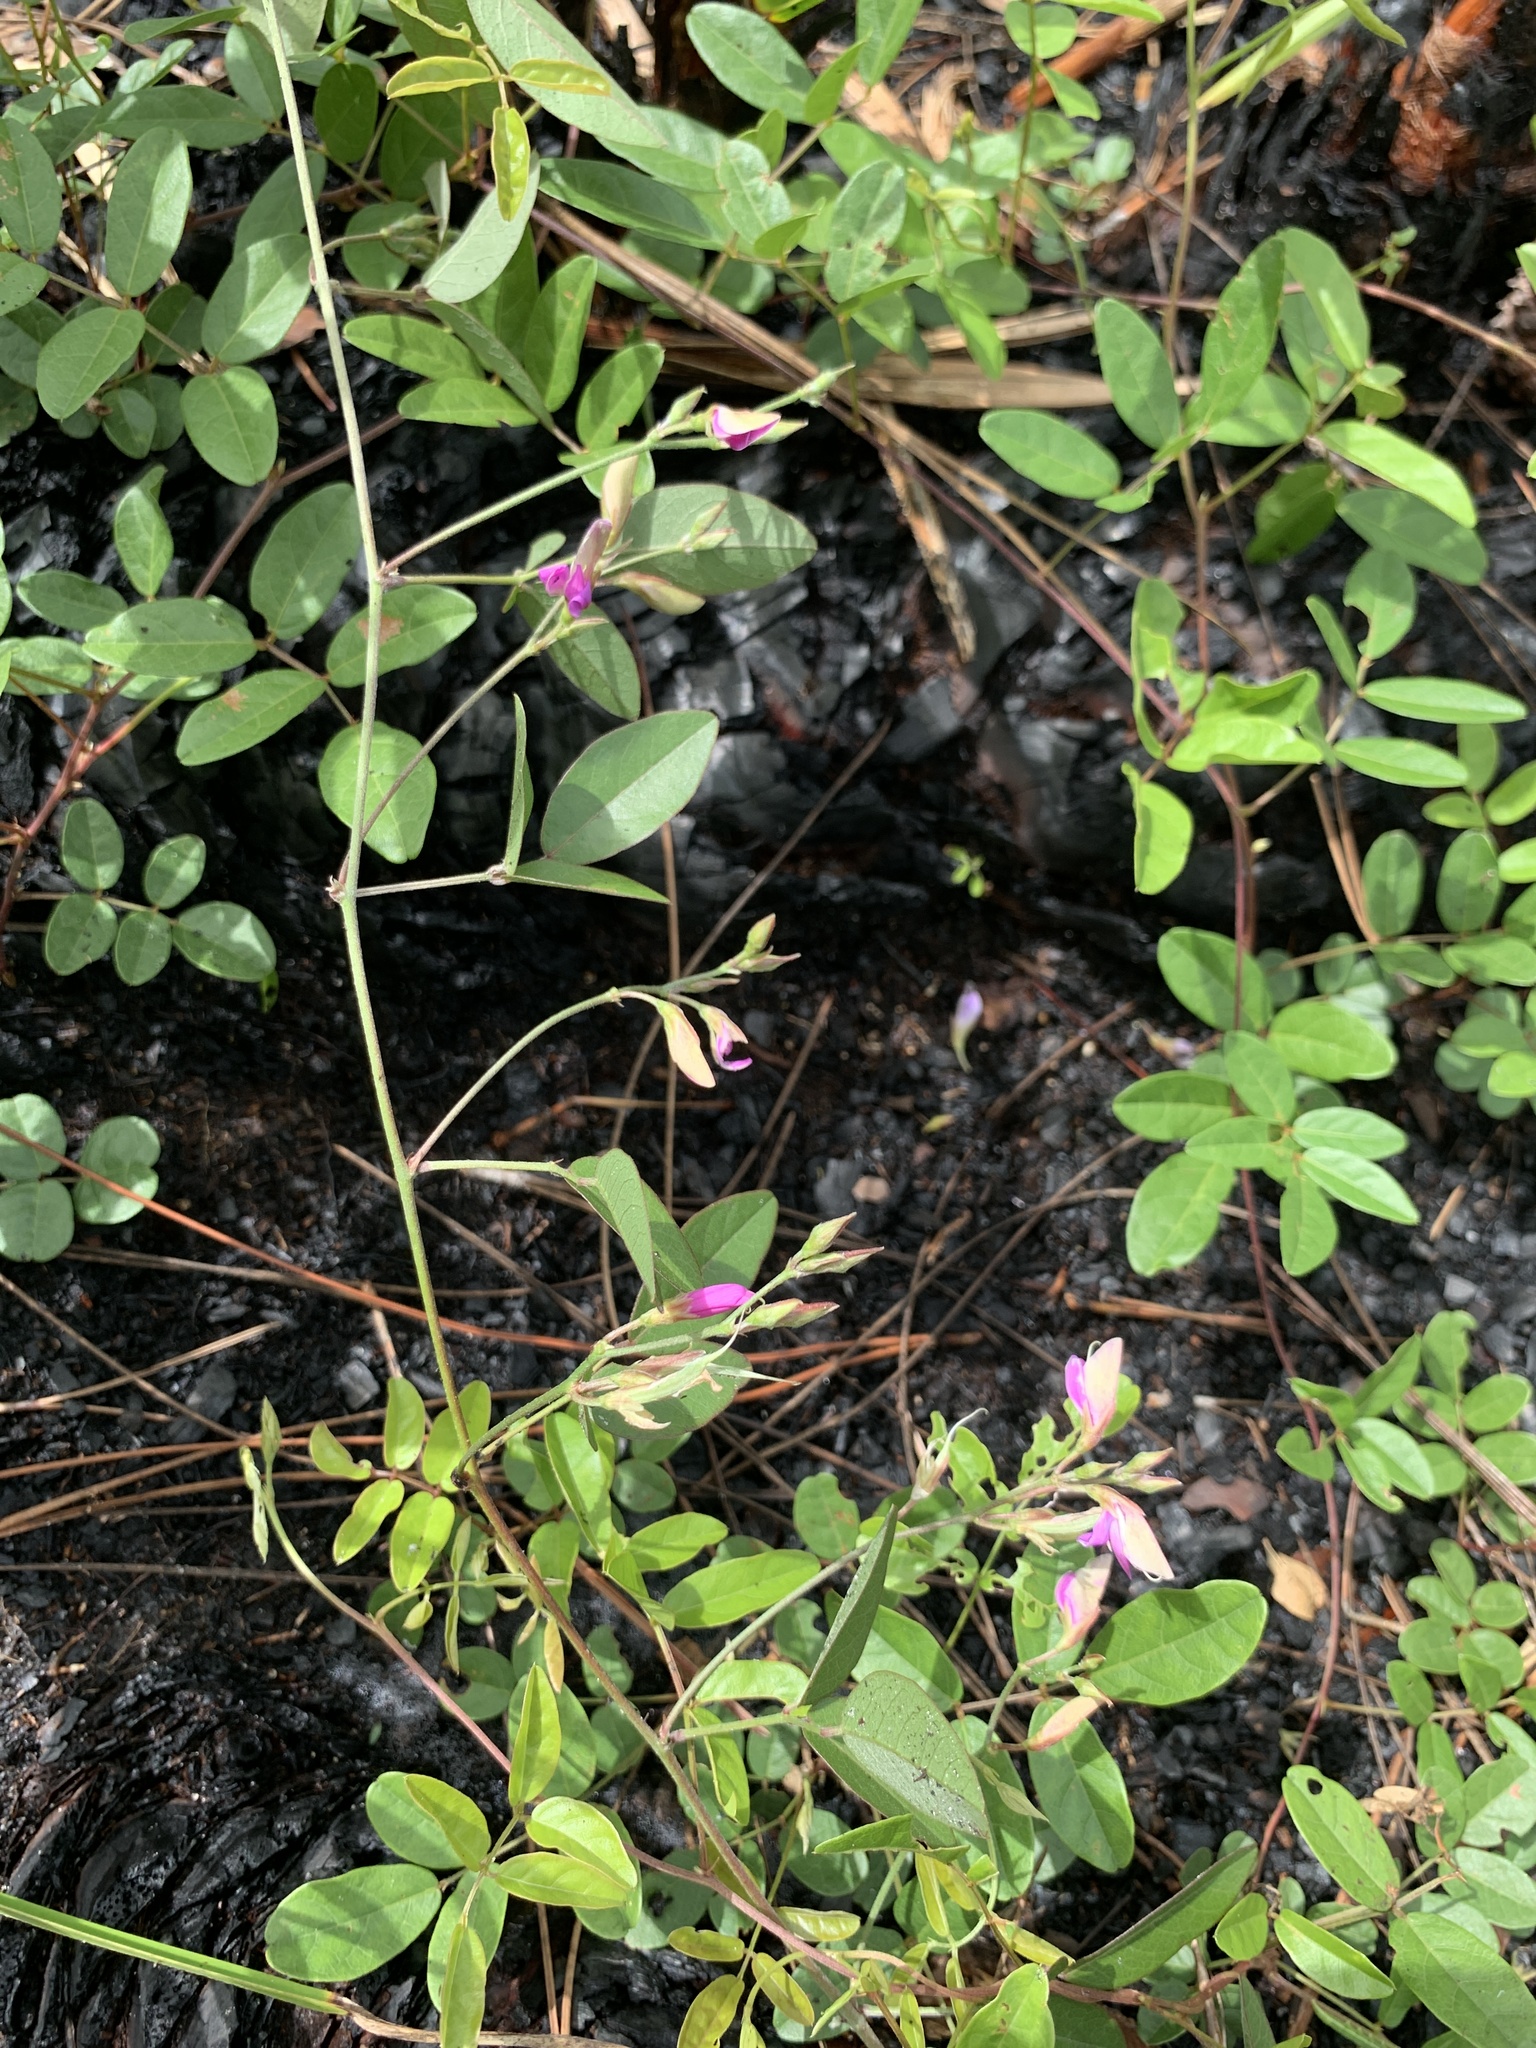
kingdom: Plantae
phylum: Tracheophyta
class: Magnoliopsida
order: Fabales
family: Fabaceae
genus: Galactia
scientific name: Galactia regularis
